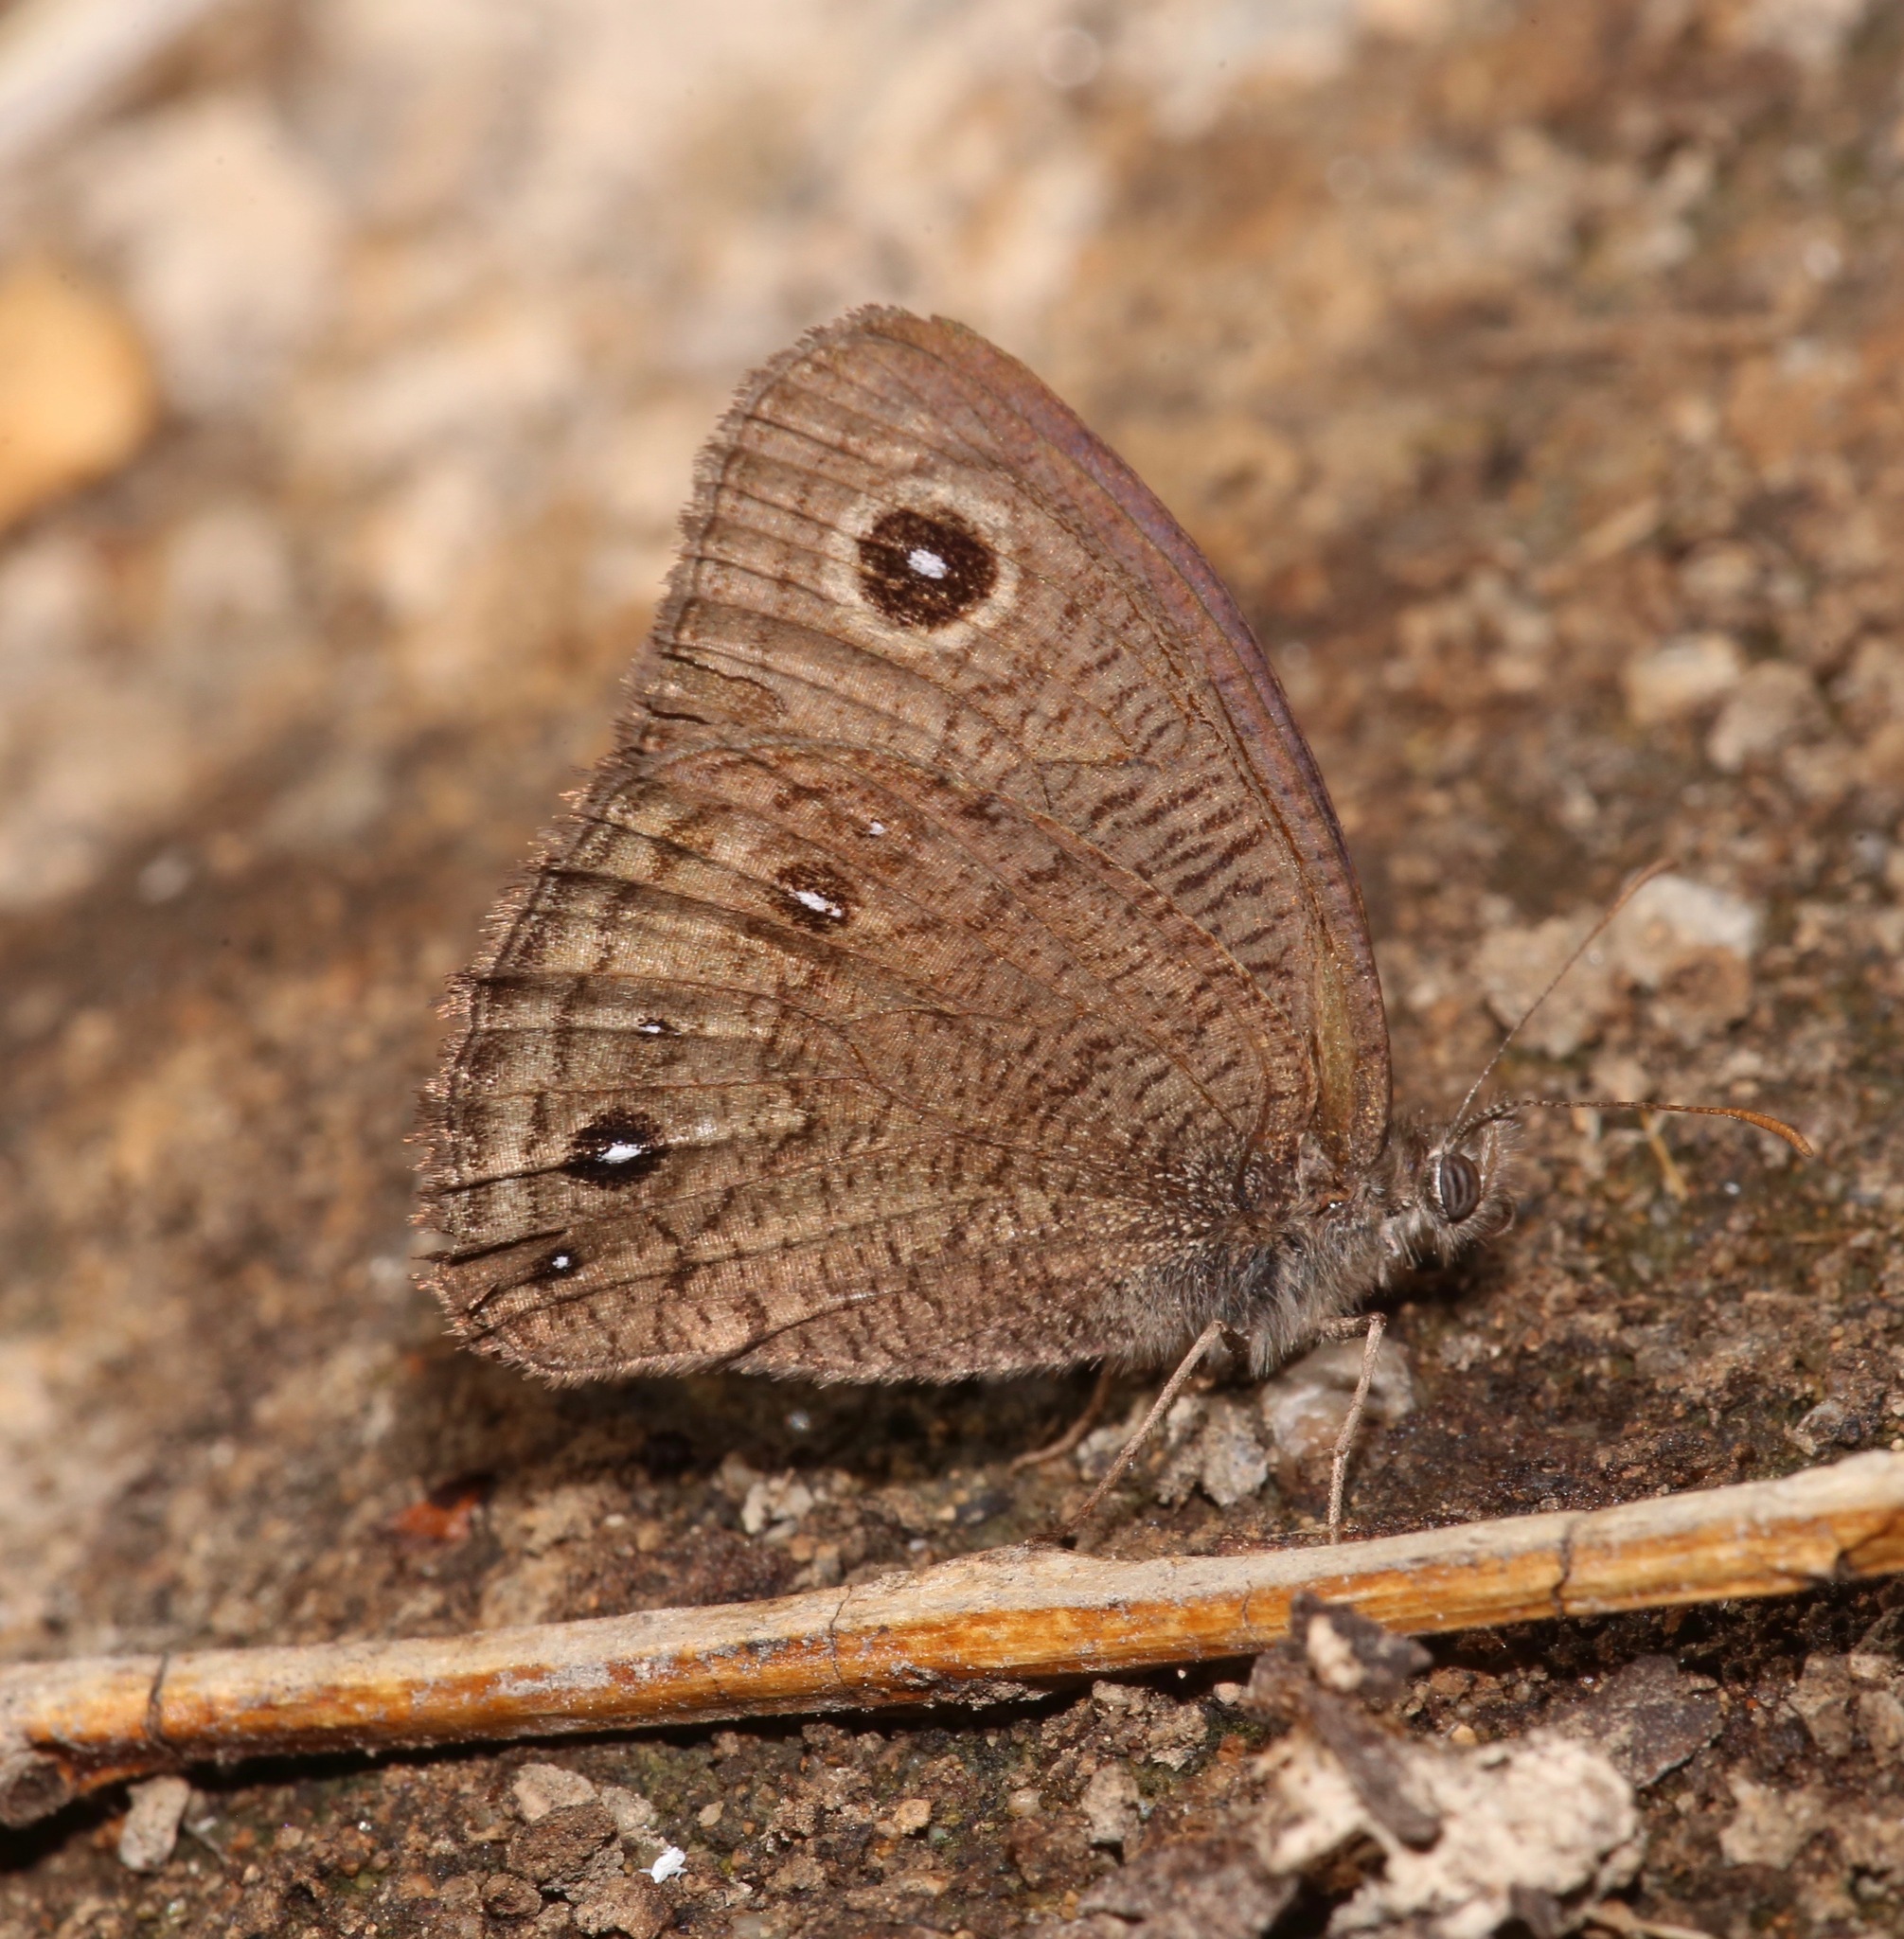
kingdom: Animalia
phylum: Arthropoda
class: Insecta
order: Lepidoptera
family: Nymphalidae
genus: Cercyonis
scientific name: Cercyonis sthenele
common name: Great basin wood-nymph
